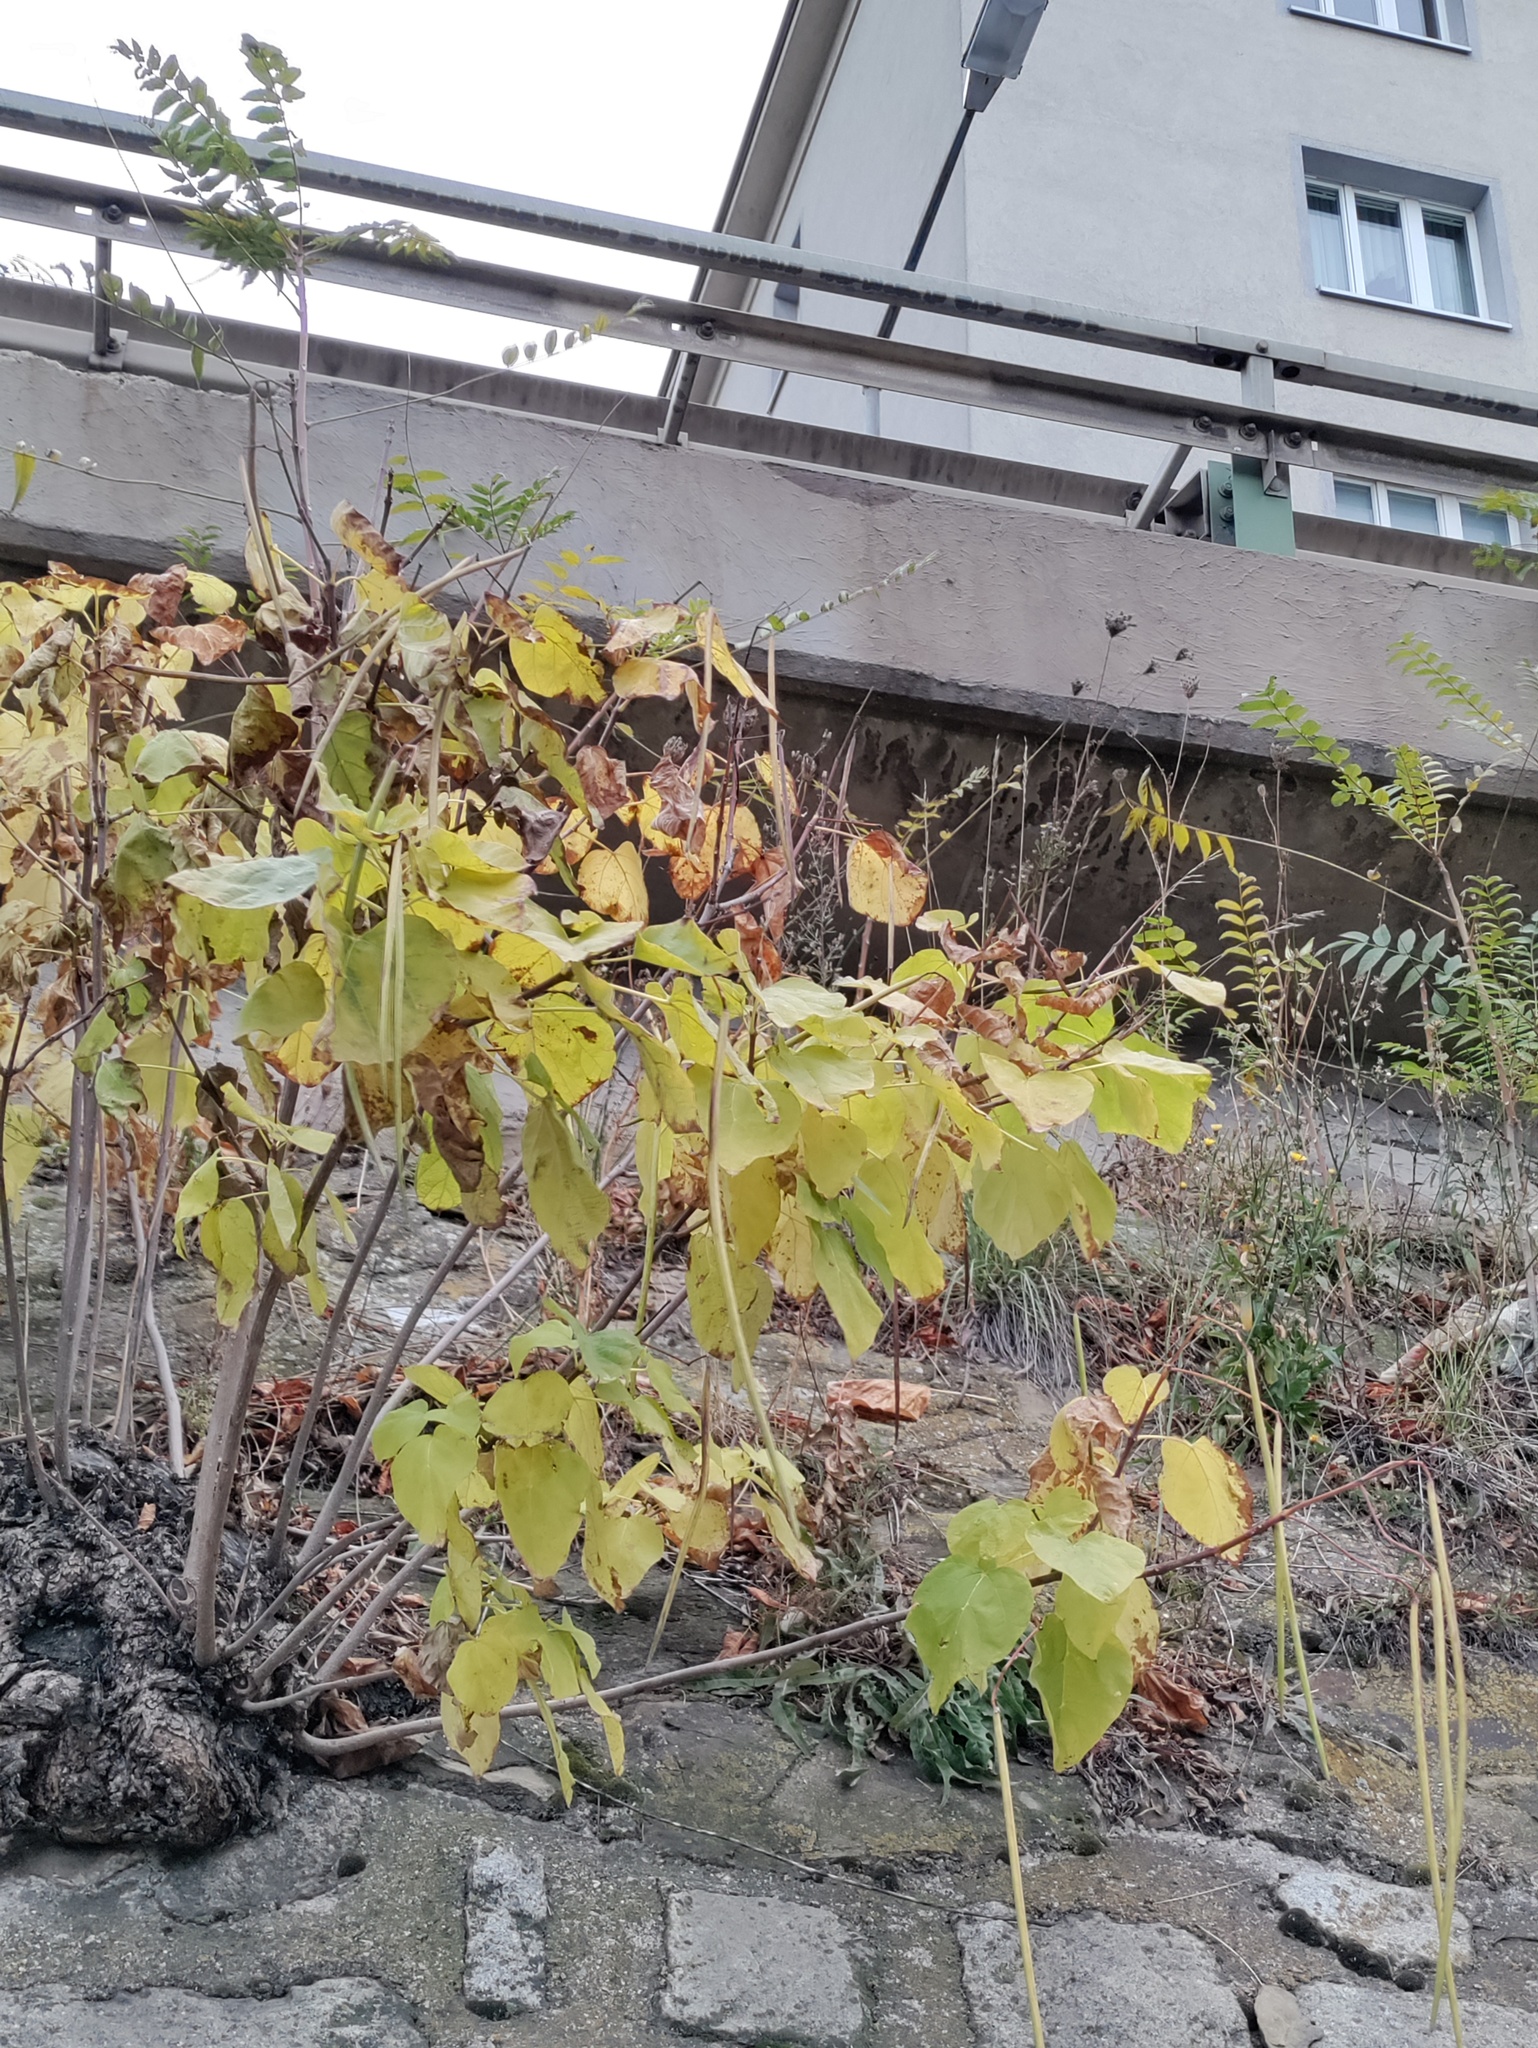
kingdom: Plantae
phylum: Tracheophyta
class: Magnoliopsida
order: Lamiales
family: Bignoniaceae
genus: Catalpa
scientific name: Catalpa bignonioides
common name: Southern catalpa
